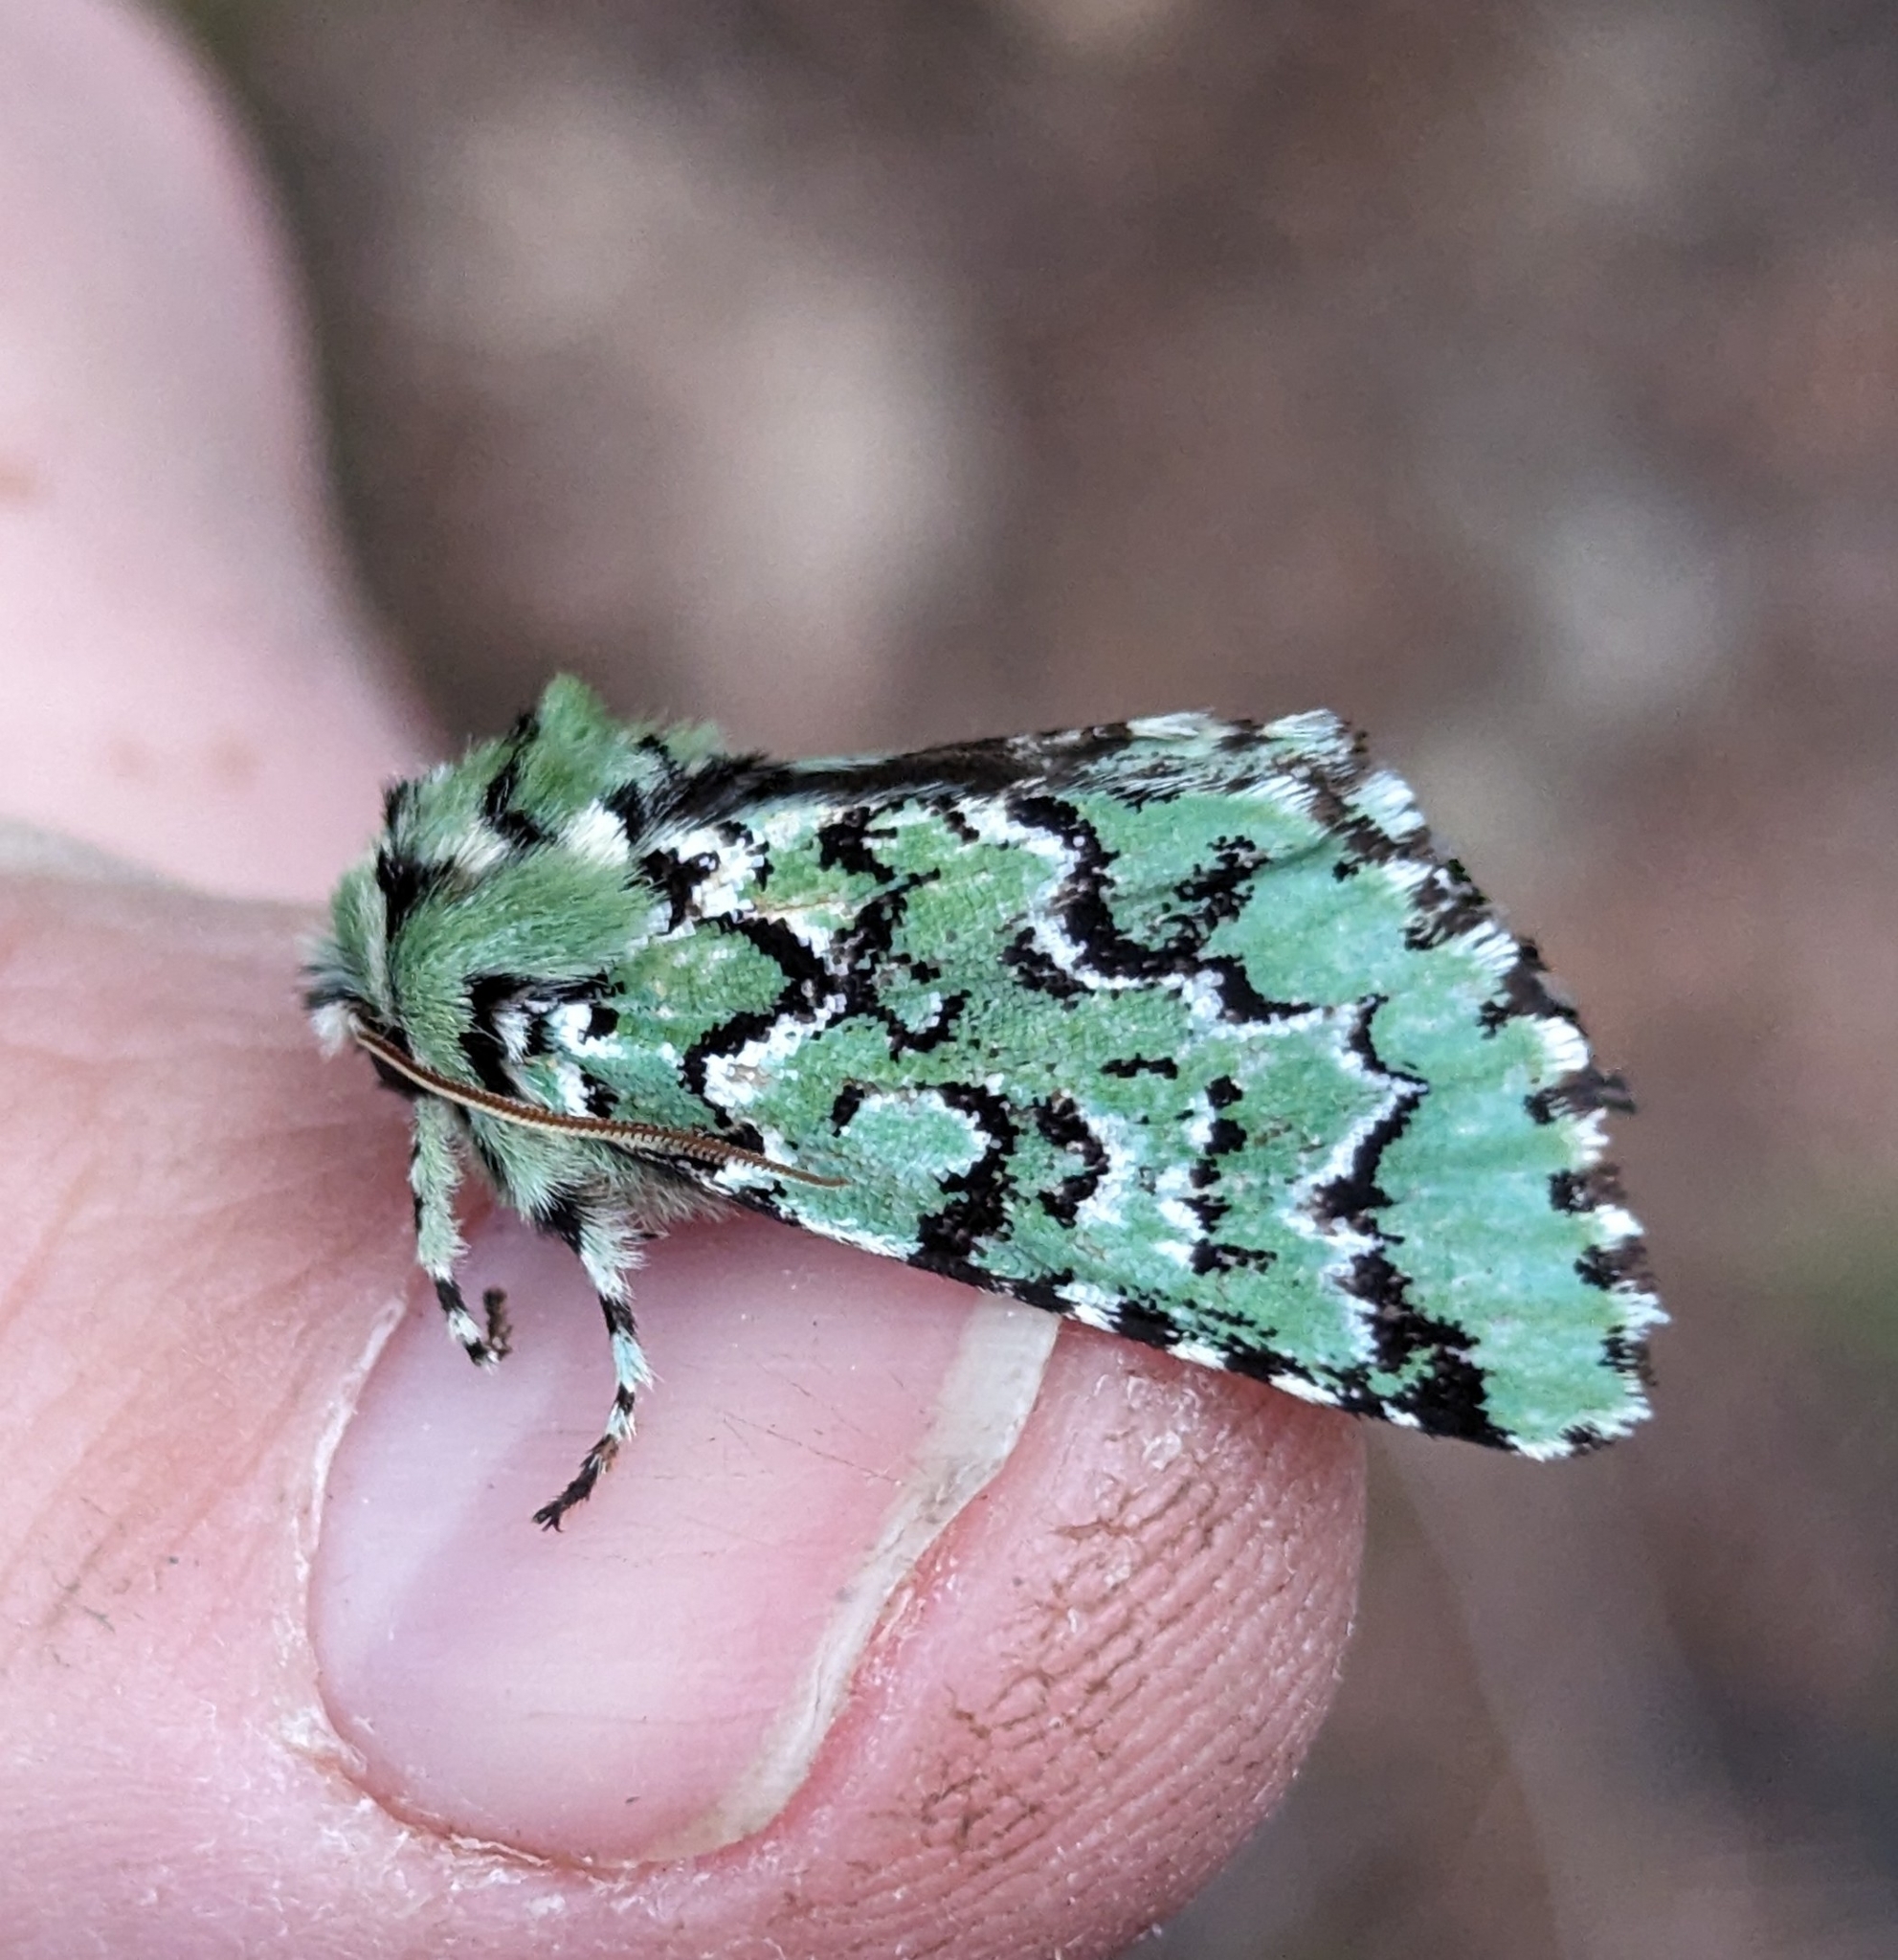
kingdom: Animalia
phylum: Arthropoda
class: Insecta
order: Lepidoptera
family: Noctuidae
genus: Feralia
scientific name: Feralia deceptiva
